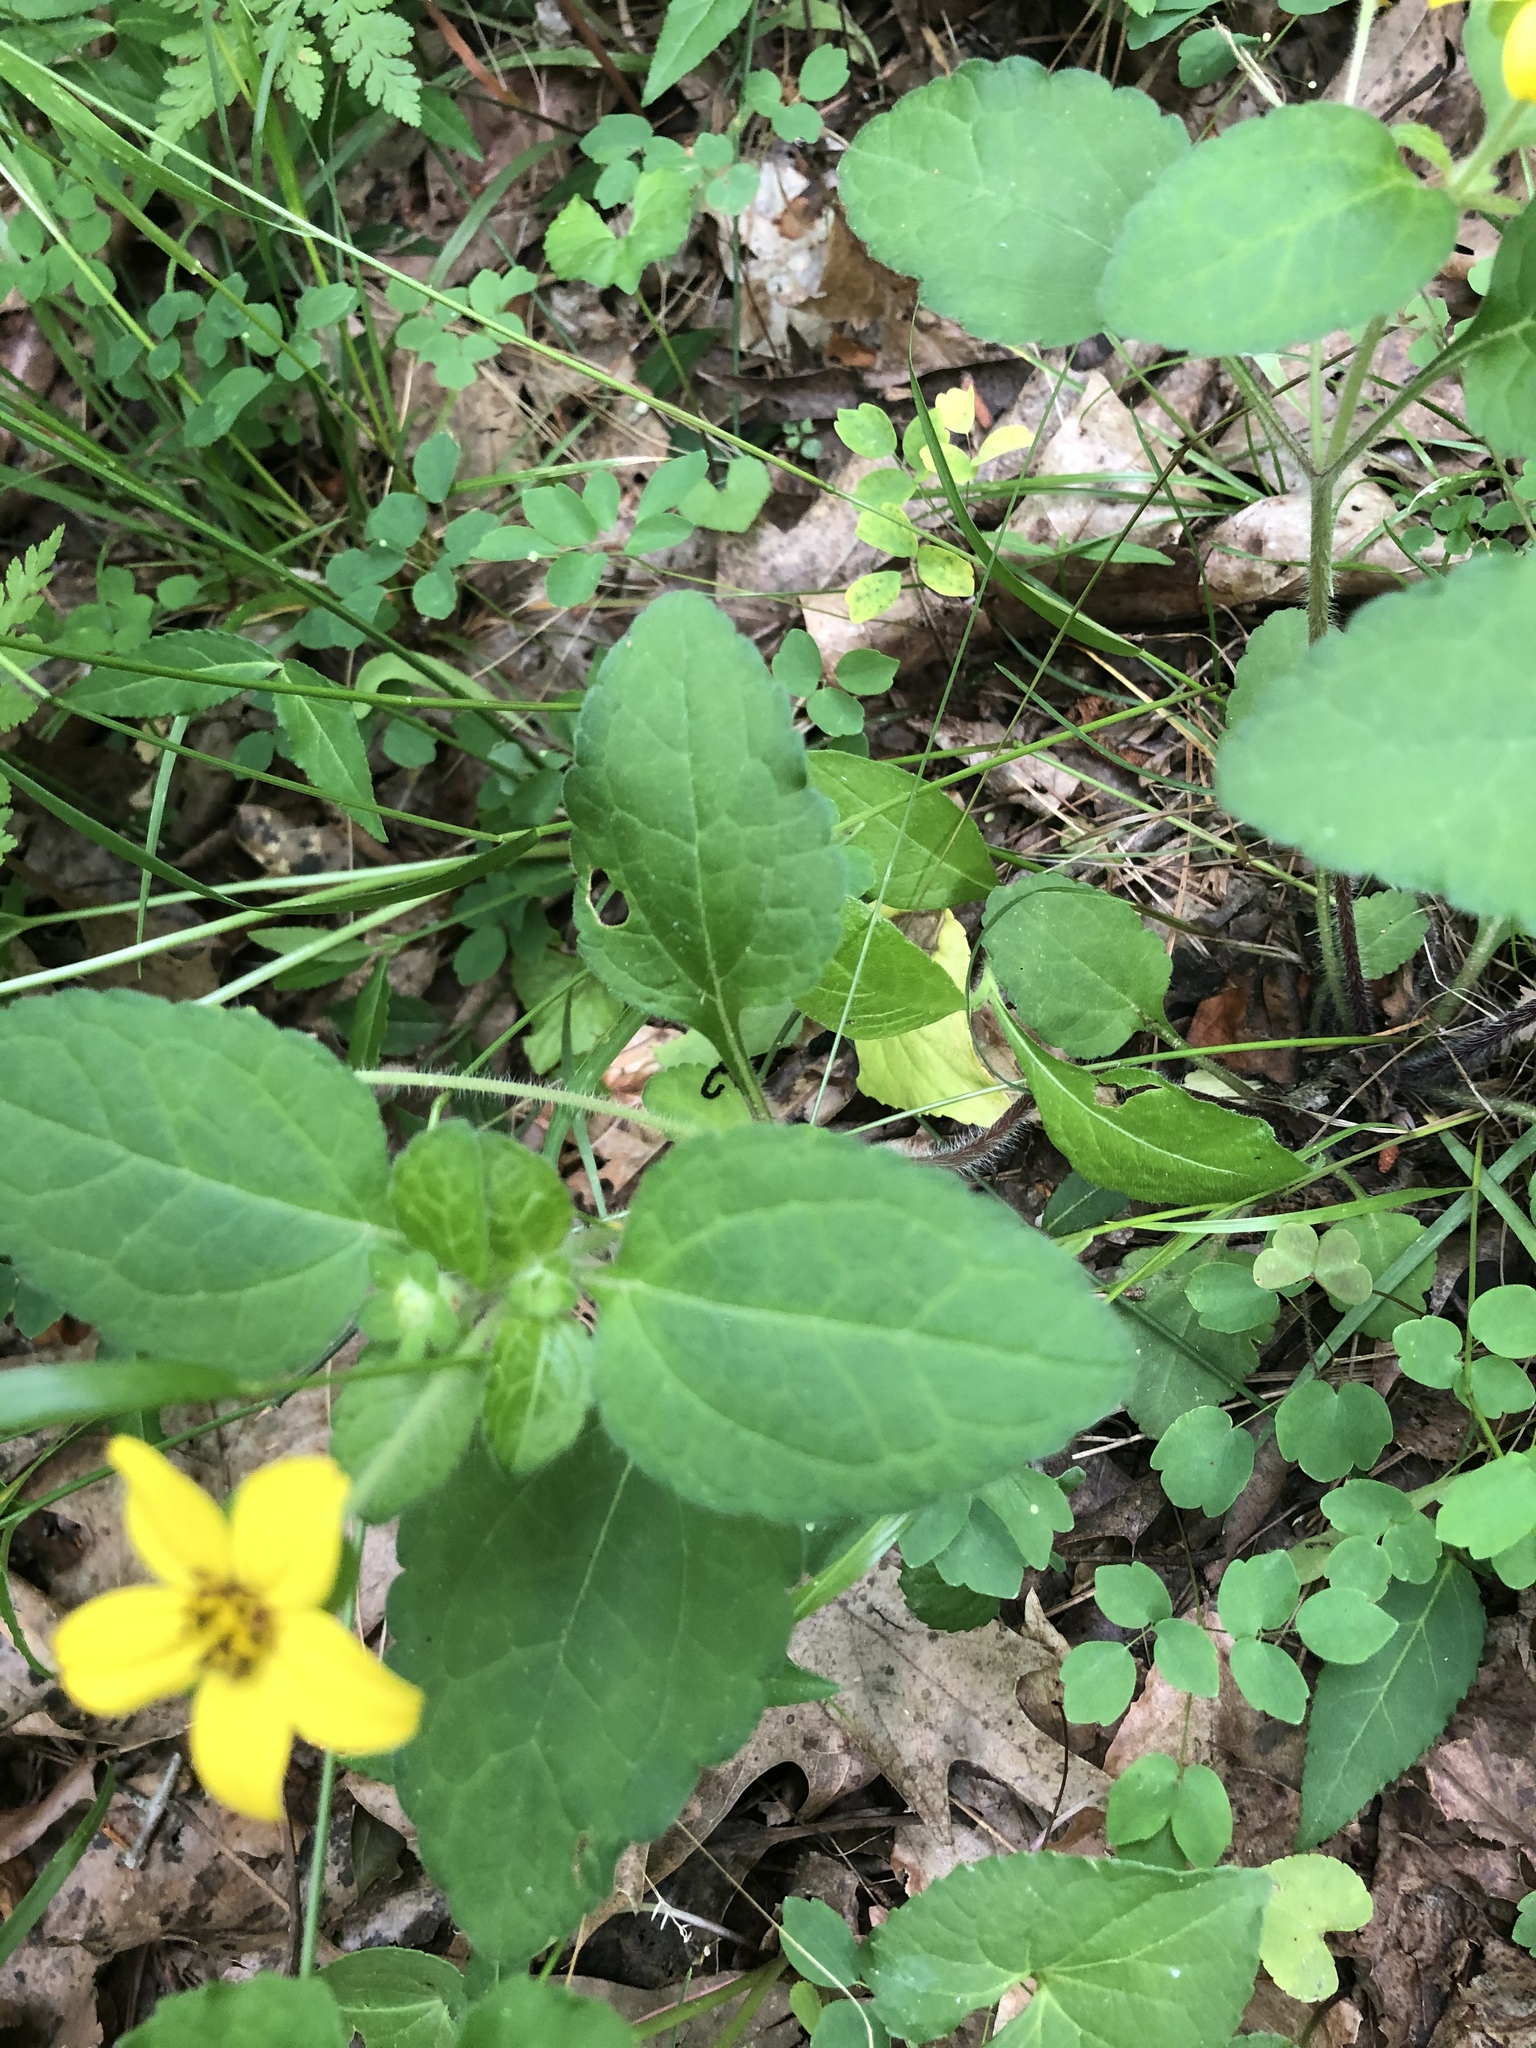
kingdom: Plantae
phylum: Tracheophyta
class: Magnoliopsida
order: Asterales
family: Asteraceae
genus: Chrysogonum
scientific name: Chrysogonum virginianum
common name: Golden-knee
